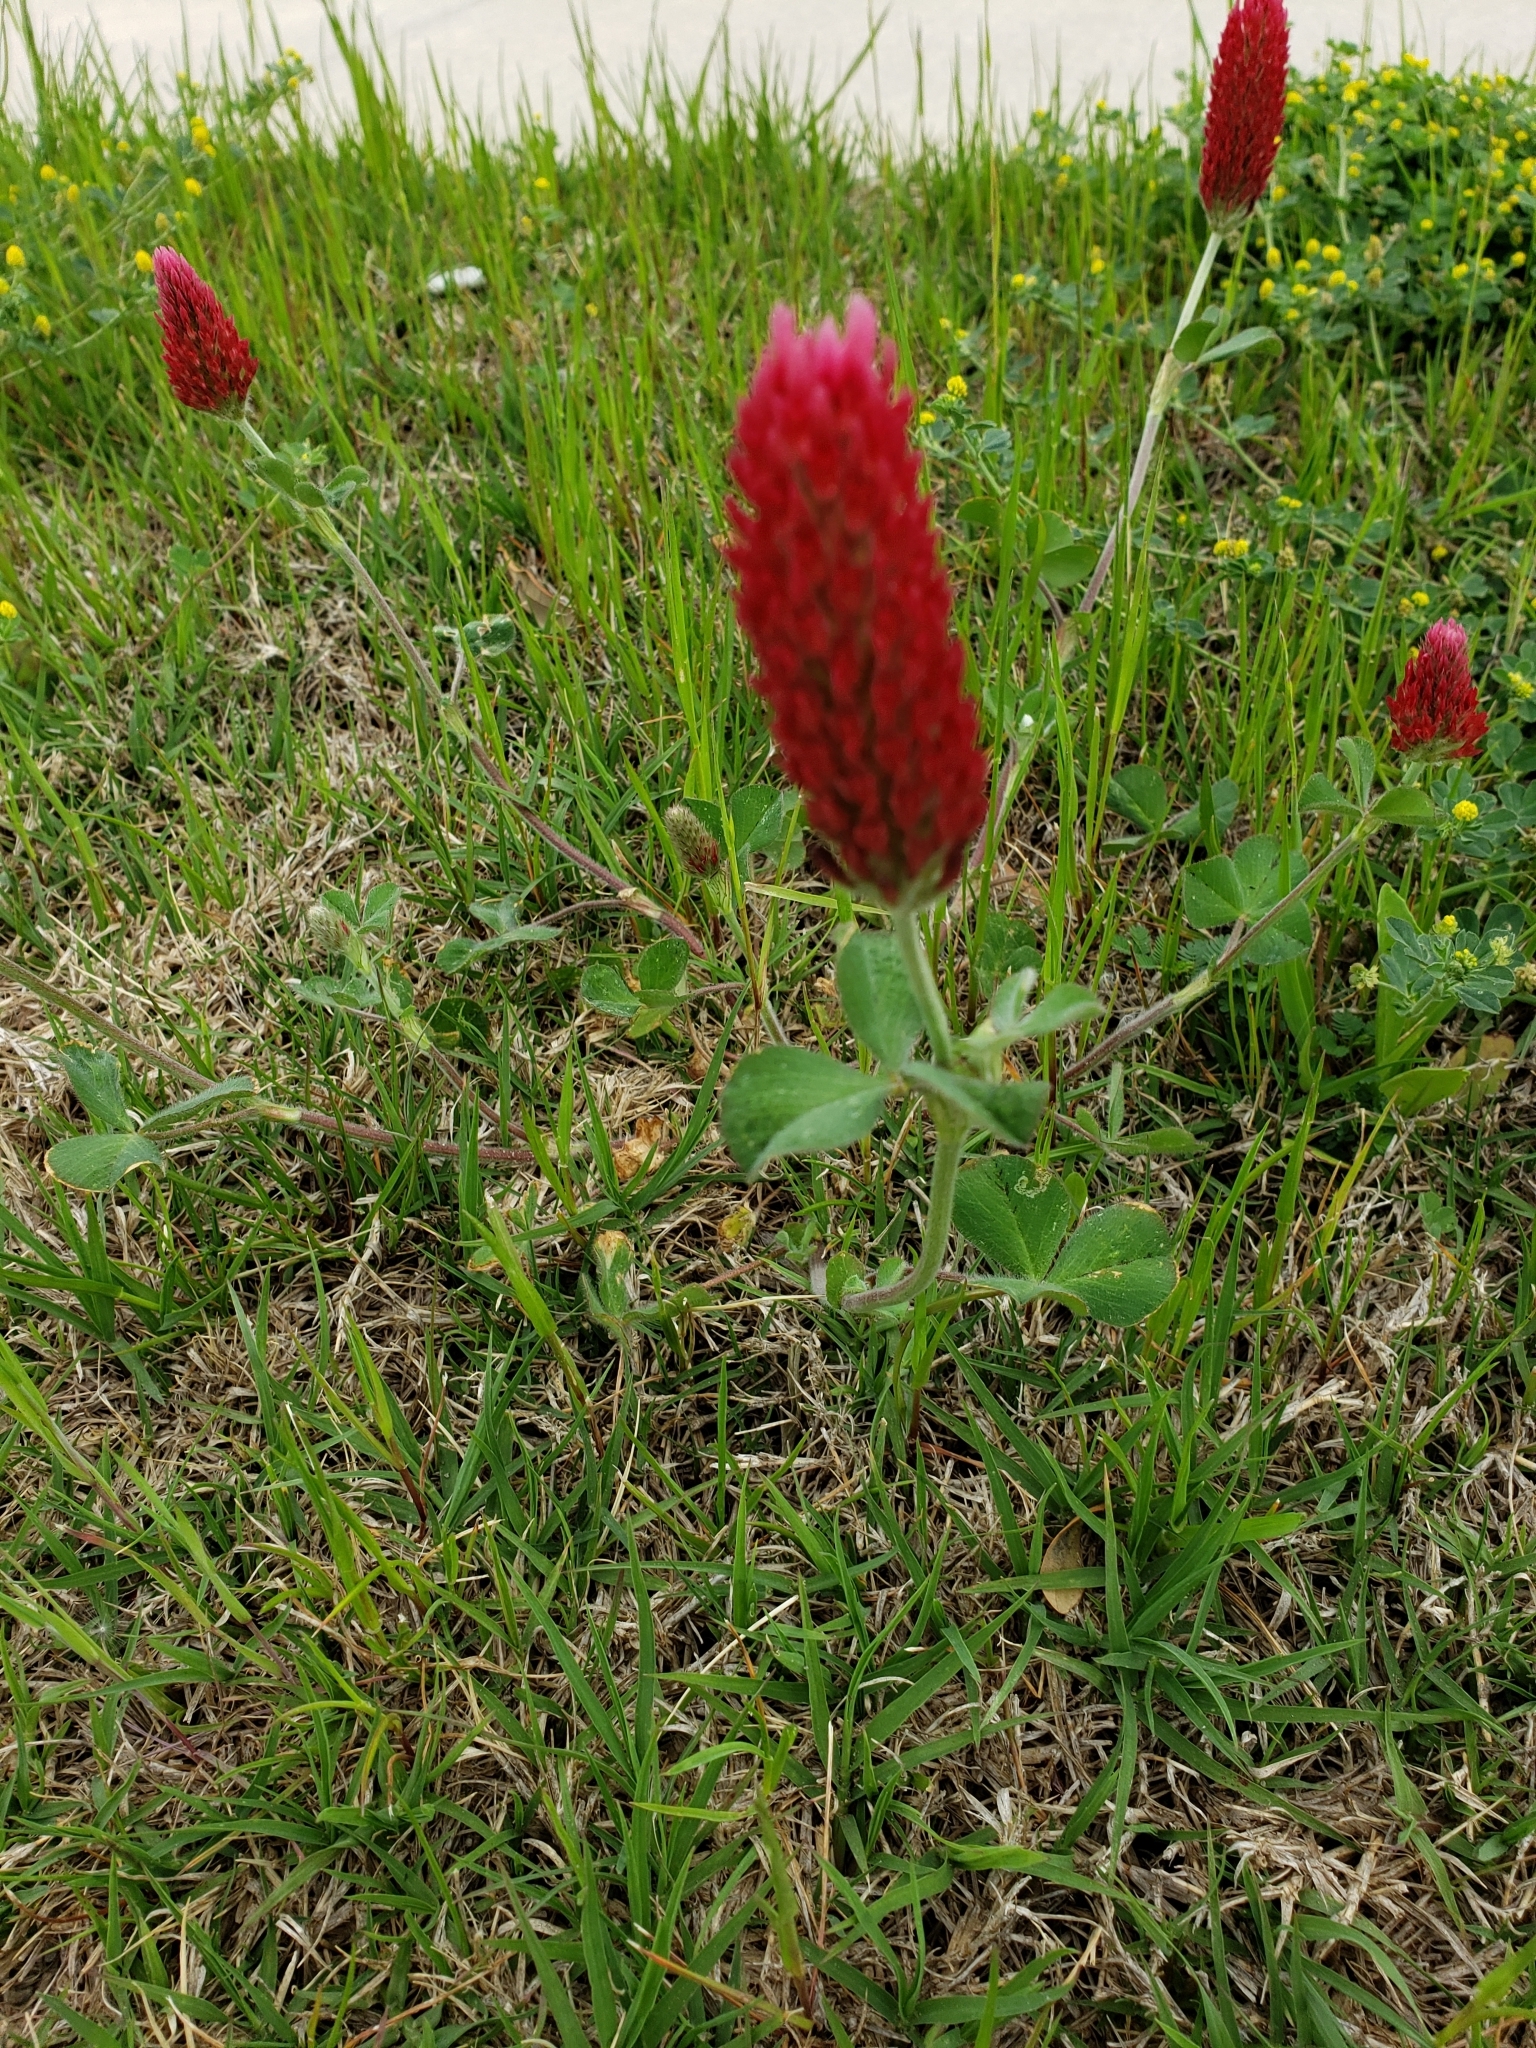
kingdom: Plantae
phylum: Tracheophyta
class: Magnoliopsida
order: Fabales
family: Fabaceae
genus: Trifolium
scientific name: Trifolium incarnatum
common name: Crimson clover
